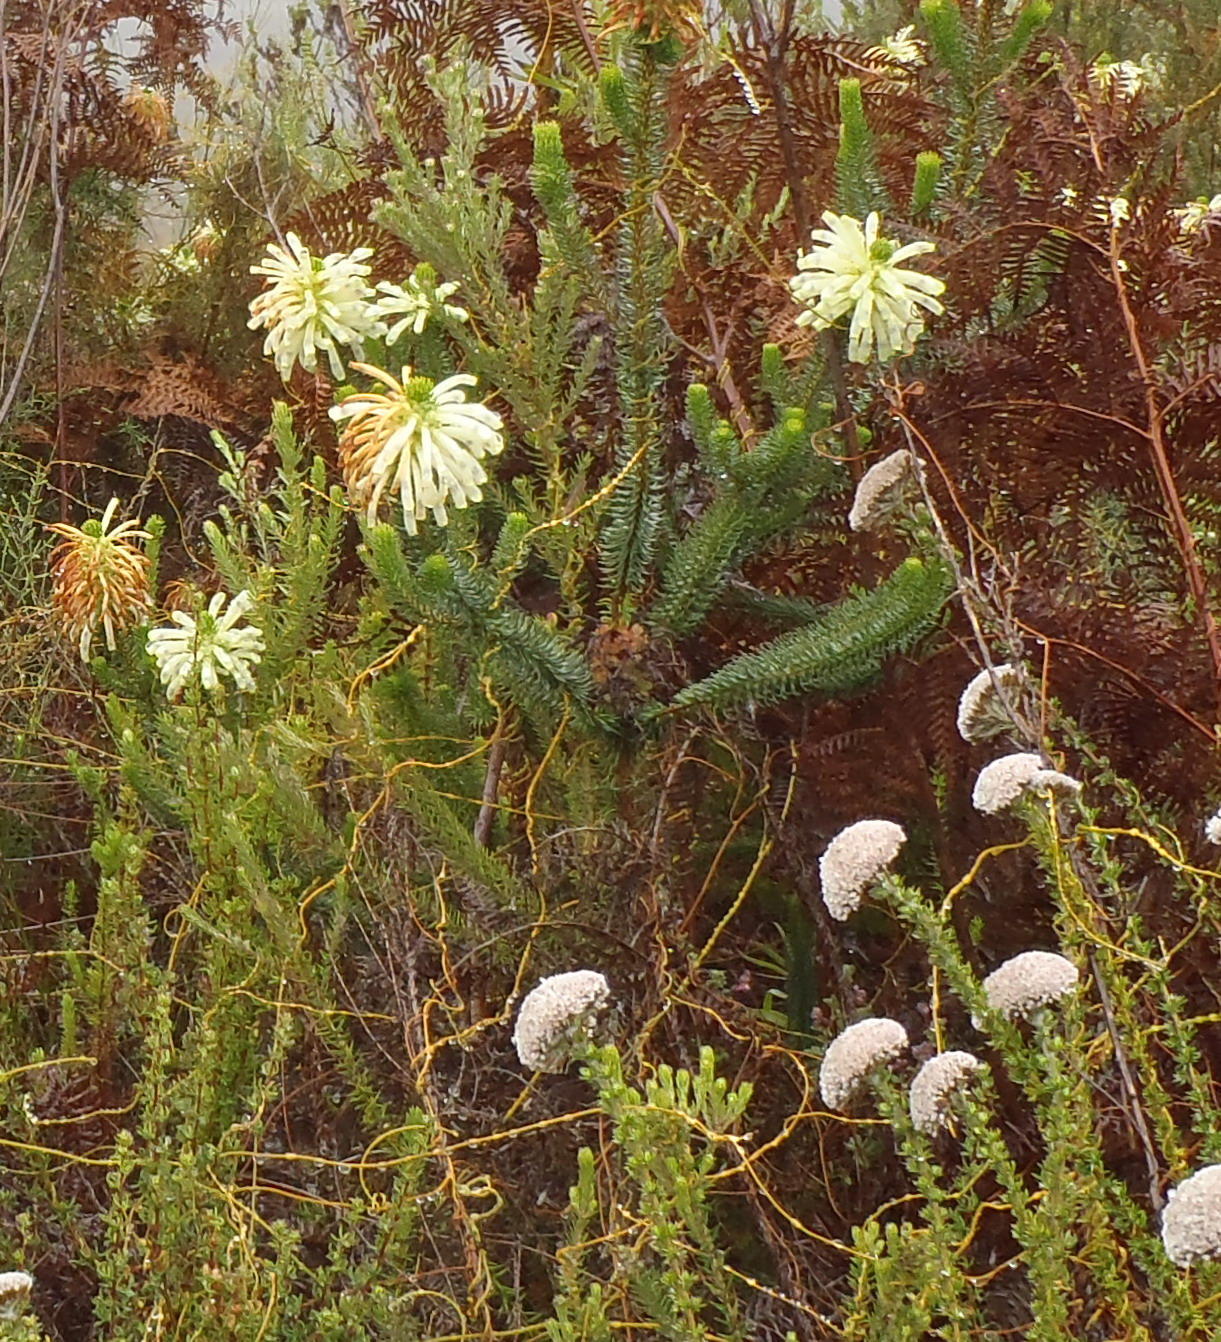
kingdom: Plantae
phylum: Tracheophyta
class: Magnoliopsida
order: Ericales
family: Ericaceae
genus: Erica
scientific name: Erica sessiliflora
